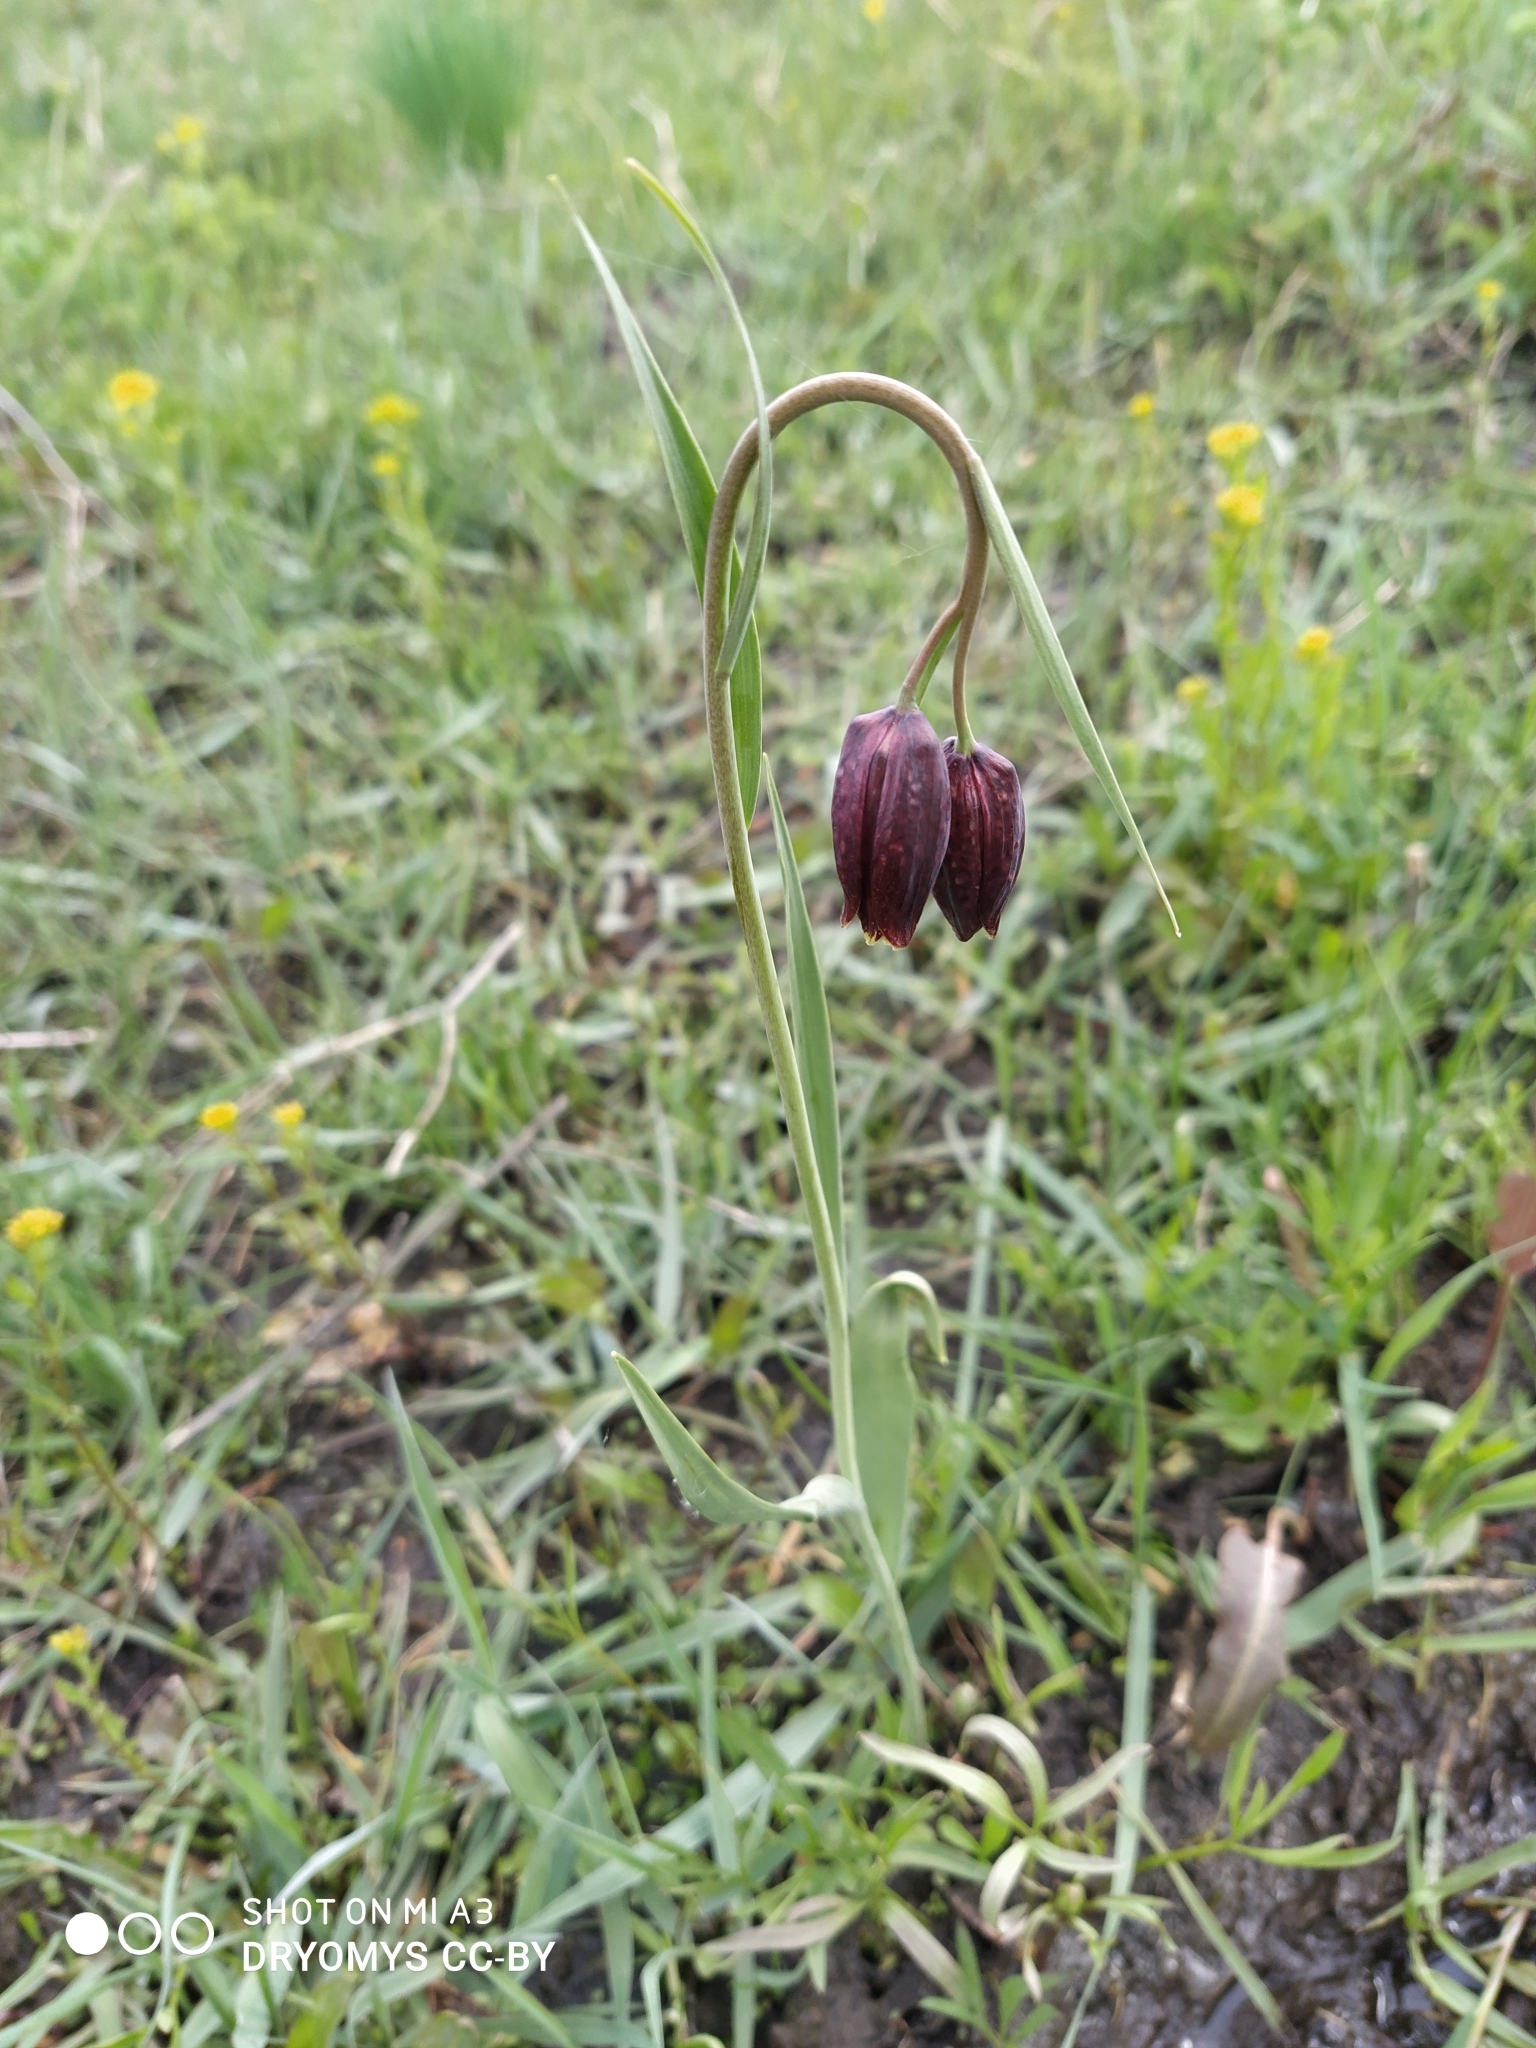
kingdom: Plantae
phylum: Tracheophyta
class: Liliopsida
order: Liliales
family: Liliaceae
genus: Fritillaria
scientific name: Fritillaria meleagroides
